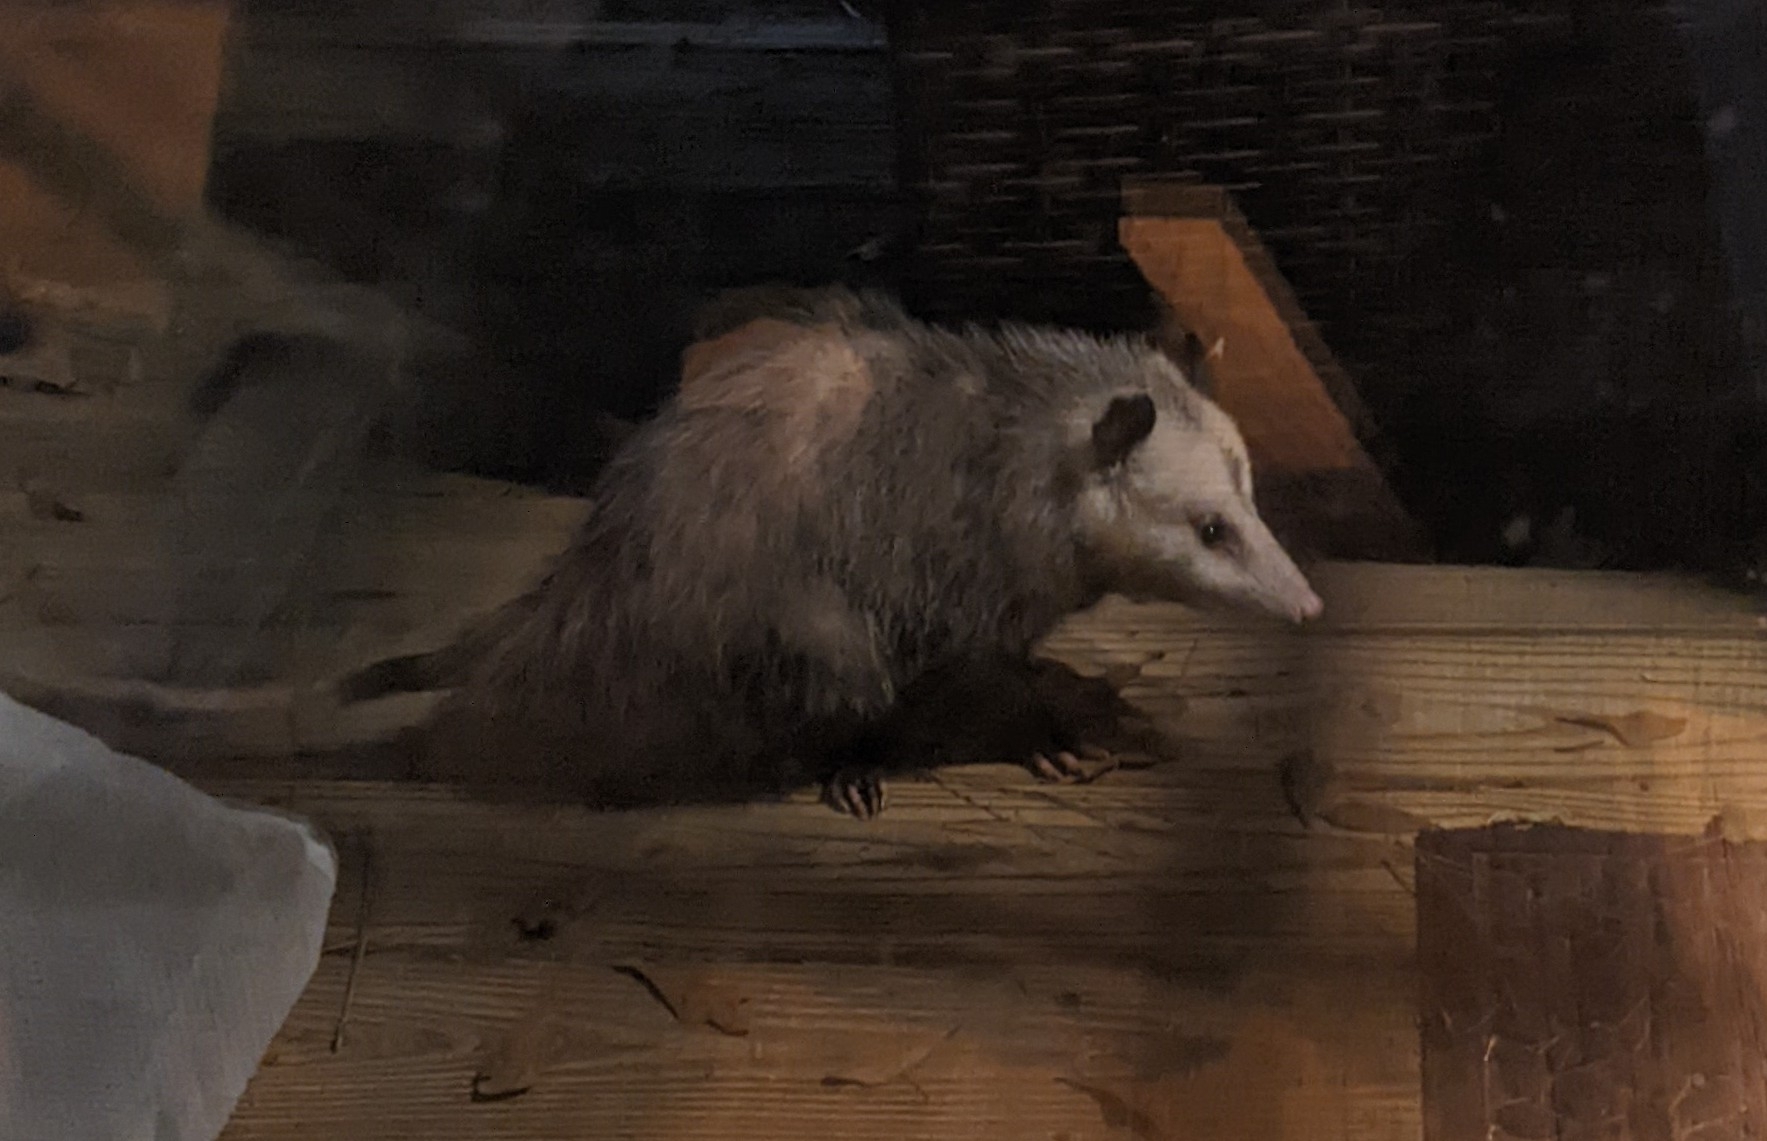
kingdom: Animalia
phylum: Chordata
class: Mammalia
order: Didelphimorphia
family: Didelphidae
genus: Didelphis
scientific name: Didelphis virginiana
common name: Virginia opossum
